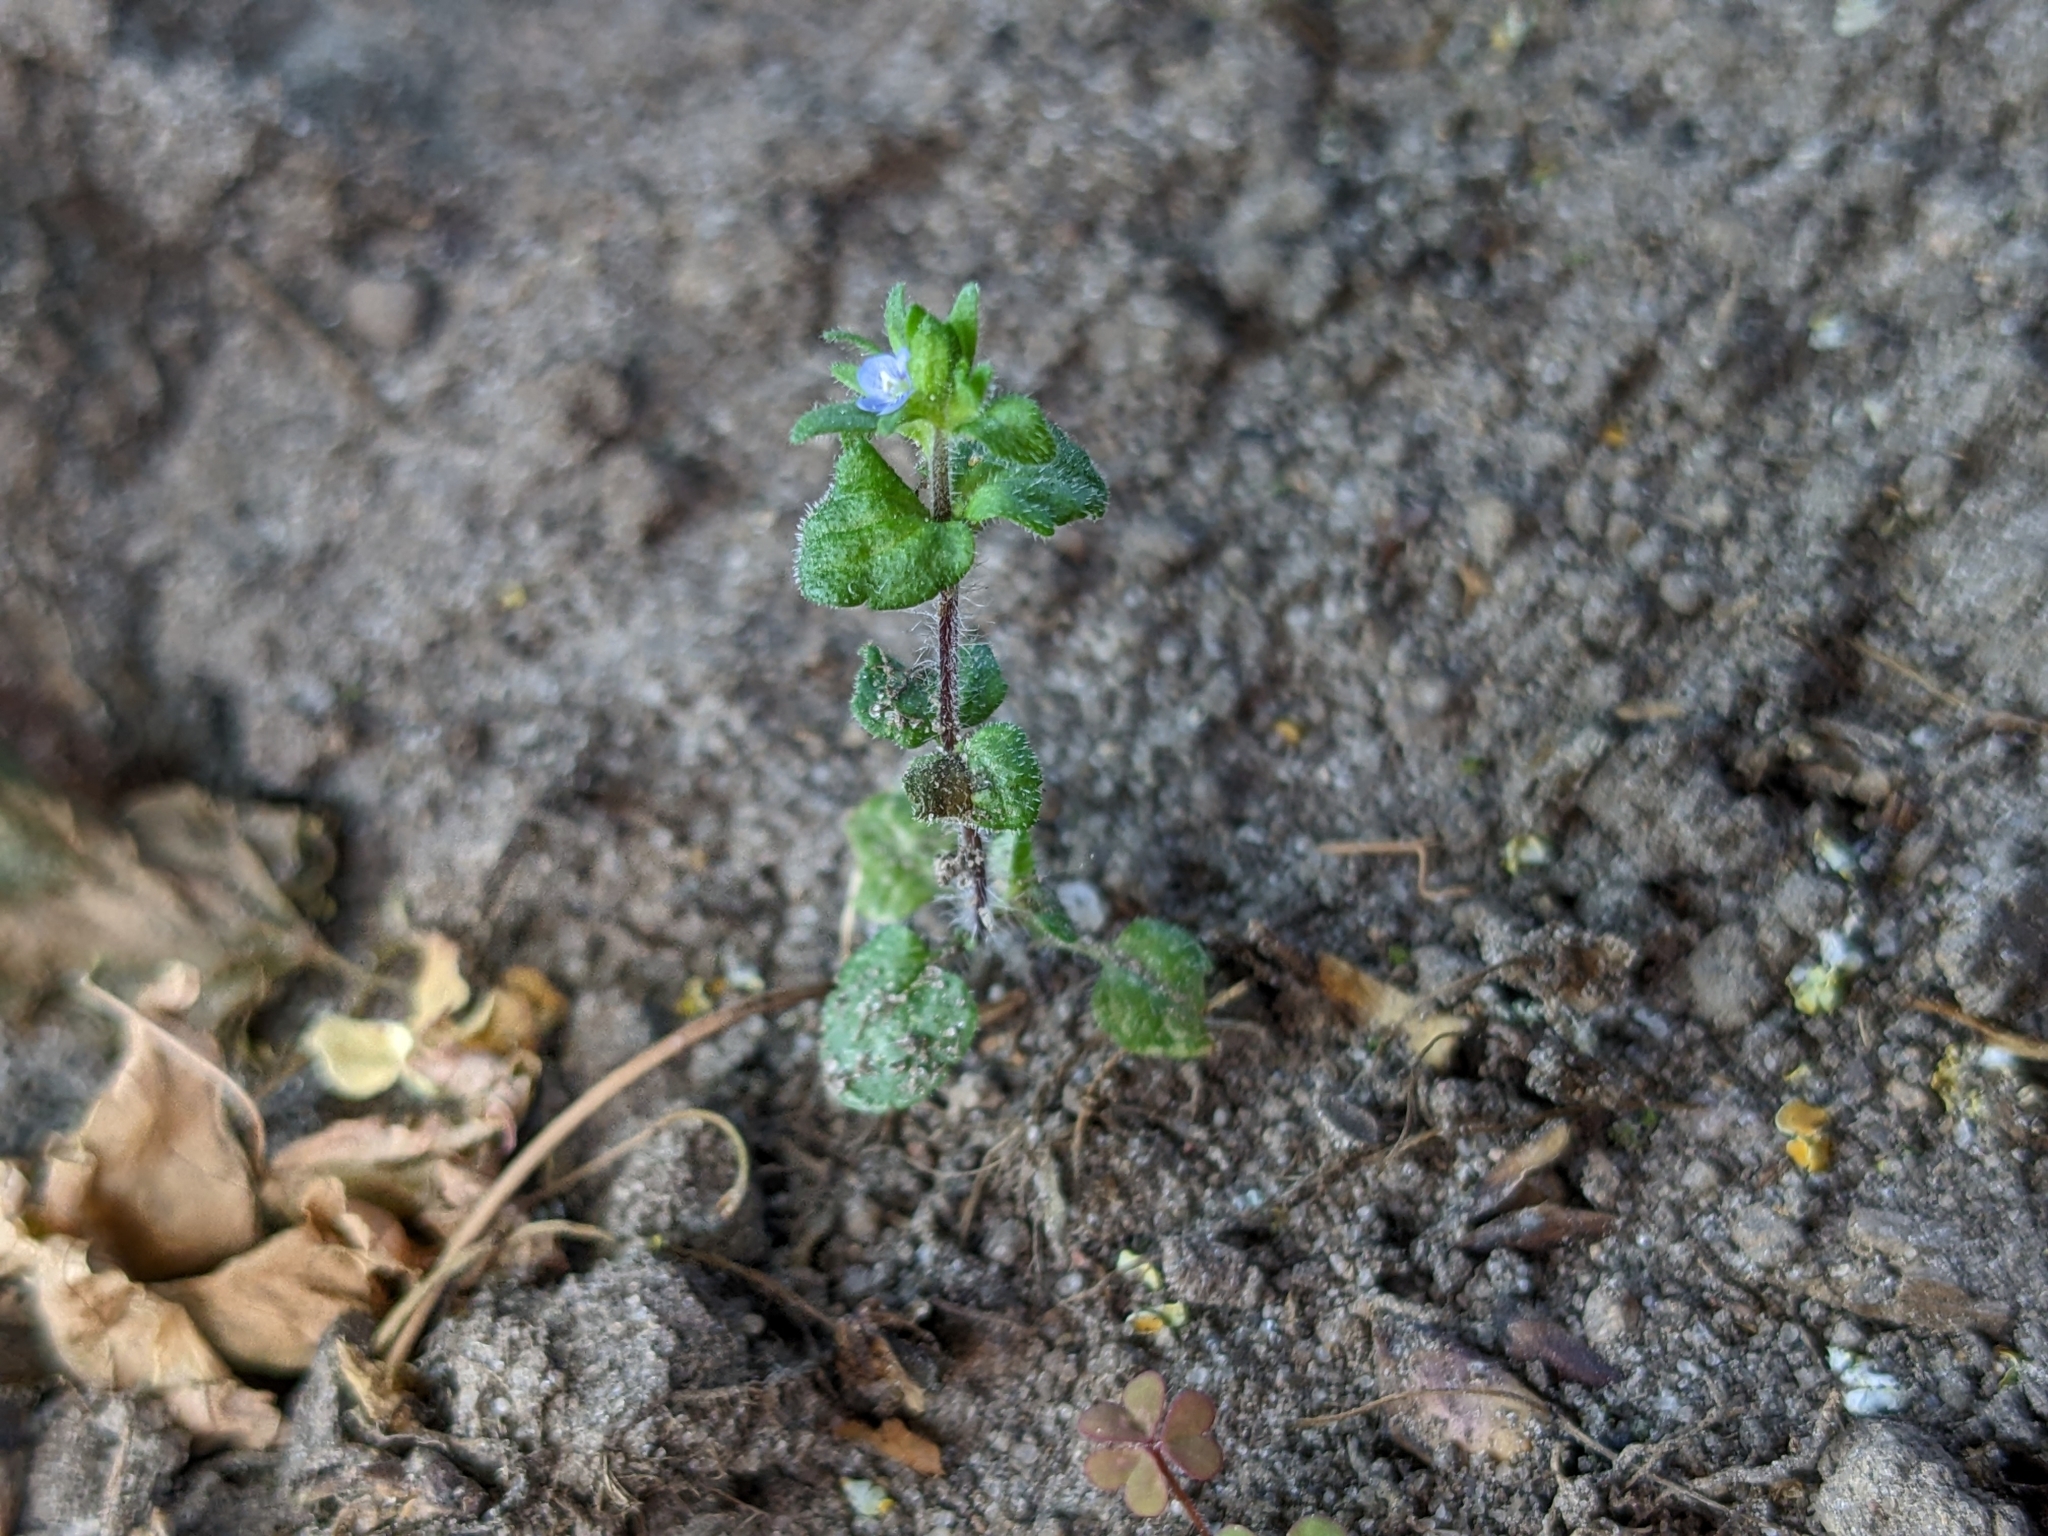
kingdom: Plantae
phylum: Tracheophyta
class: Magnoliopsida
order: Lamiales
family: Plantaginaceae
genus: Veronica
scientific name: Veronica arvensis
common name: Corn speedwell
